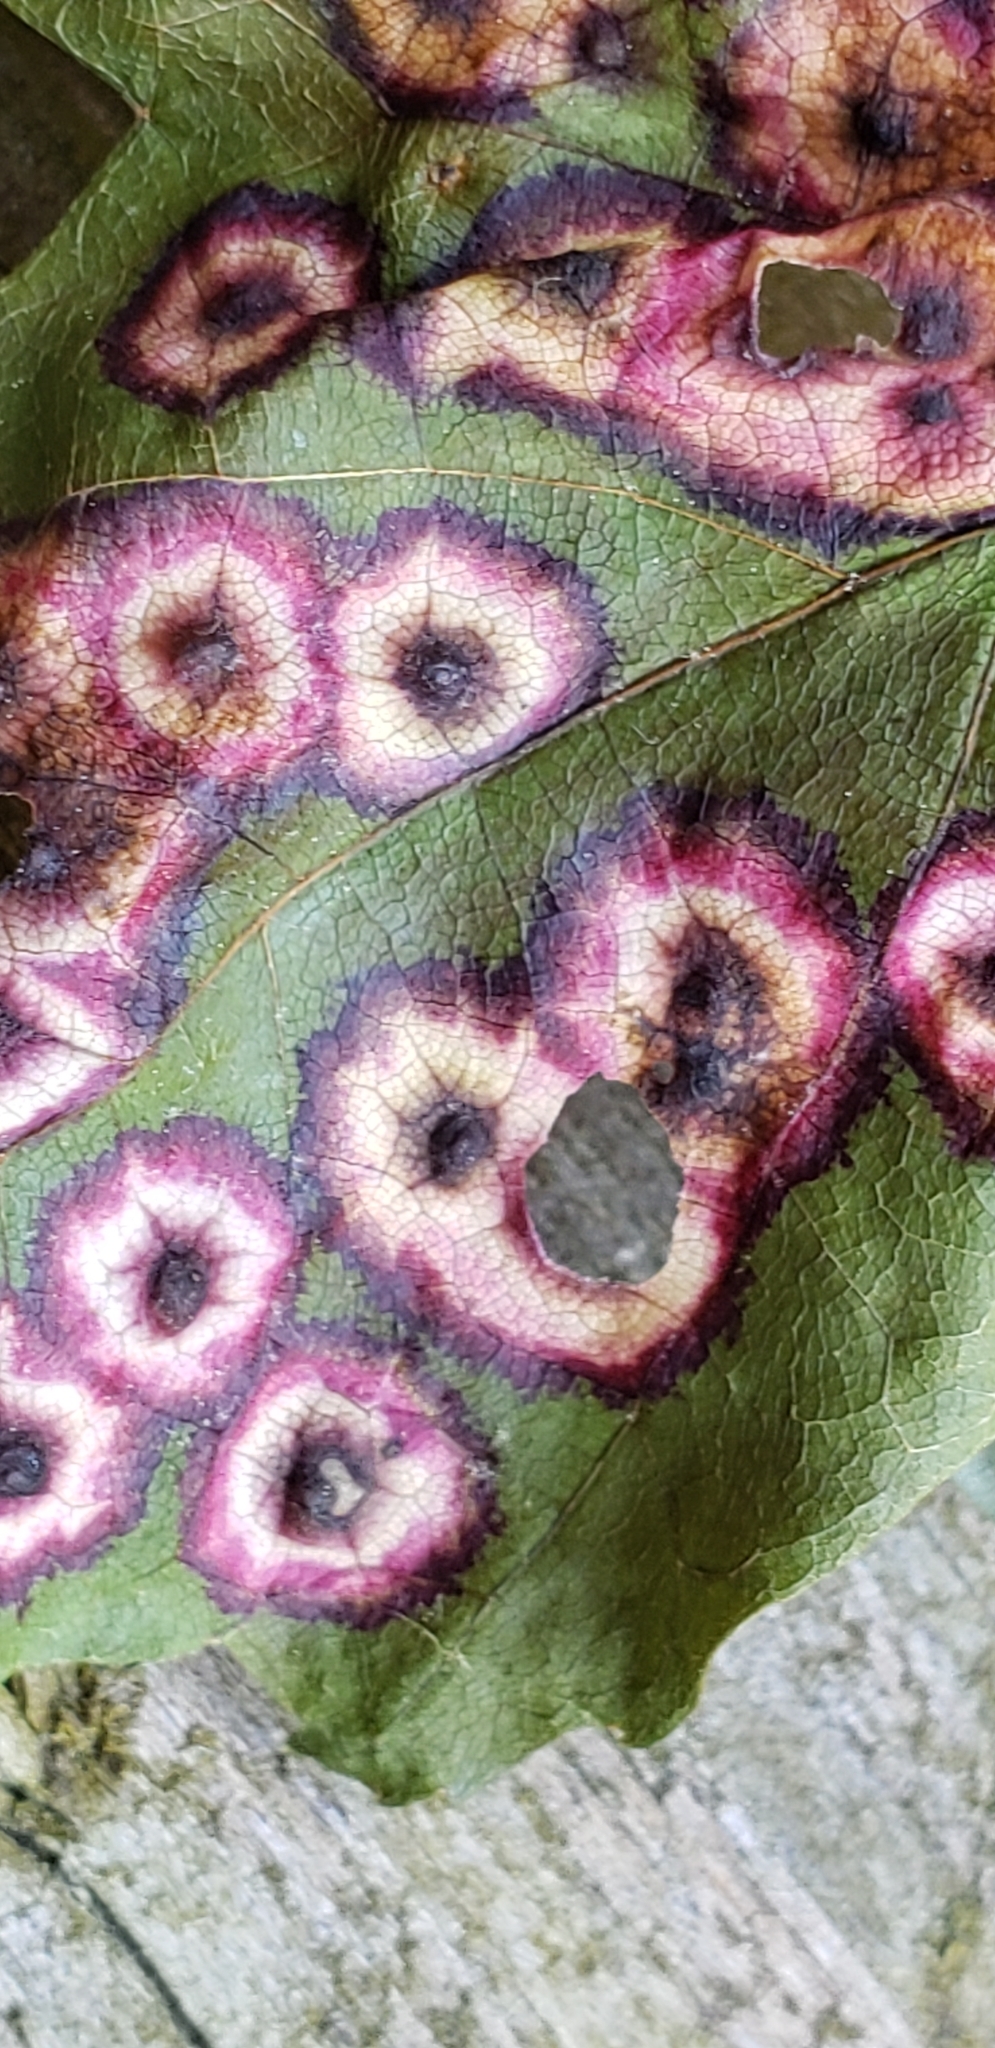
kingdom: Animalia
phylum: Arthropoda
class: Insecta
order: Diptera
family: Cecidomyiidae
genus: Acericecis
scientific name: Acericecis ocellaris
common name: Ocellate gall midge
